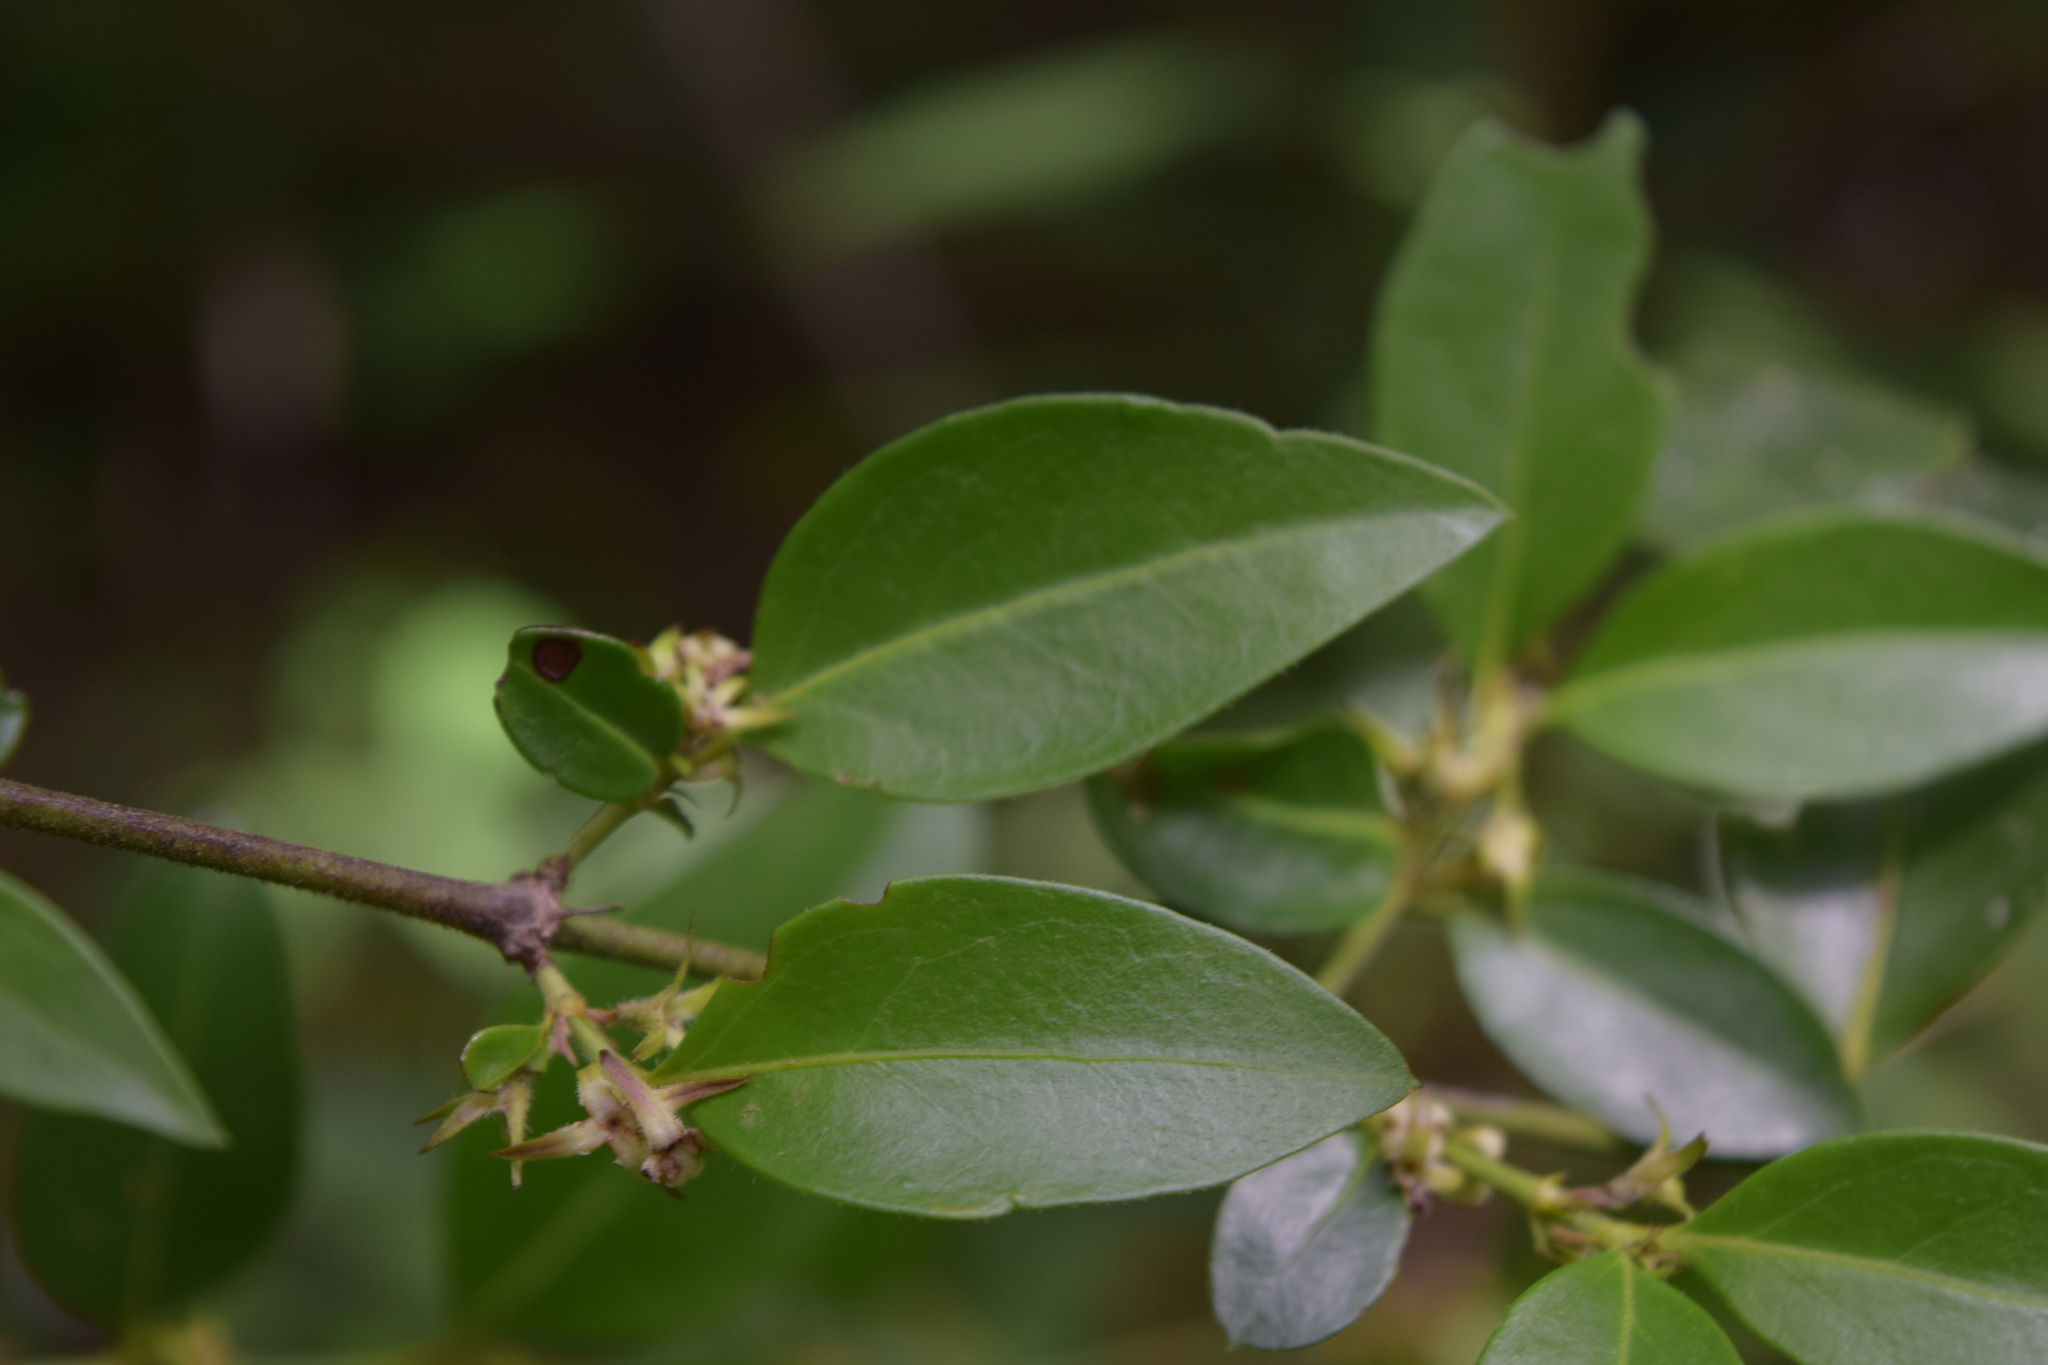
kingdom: Plantae
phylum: Tracheophyta
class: Magnoliopsida
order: Gentianales
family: Rubiaceae
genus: Chiococca
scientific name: Chiococca motleyana
